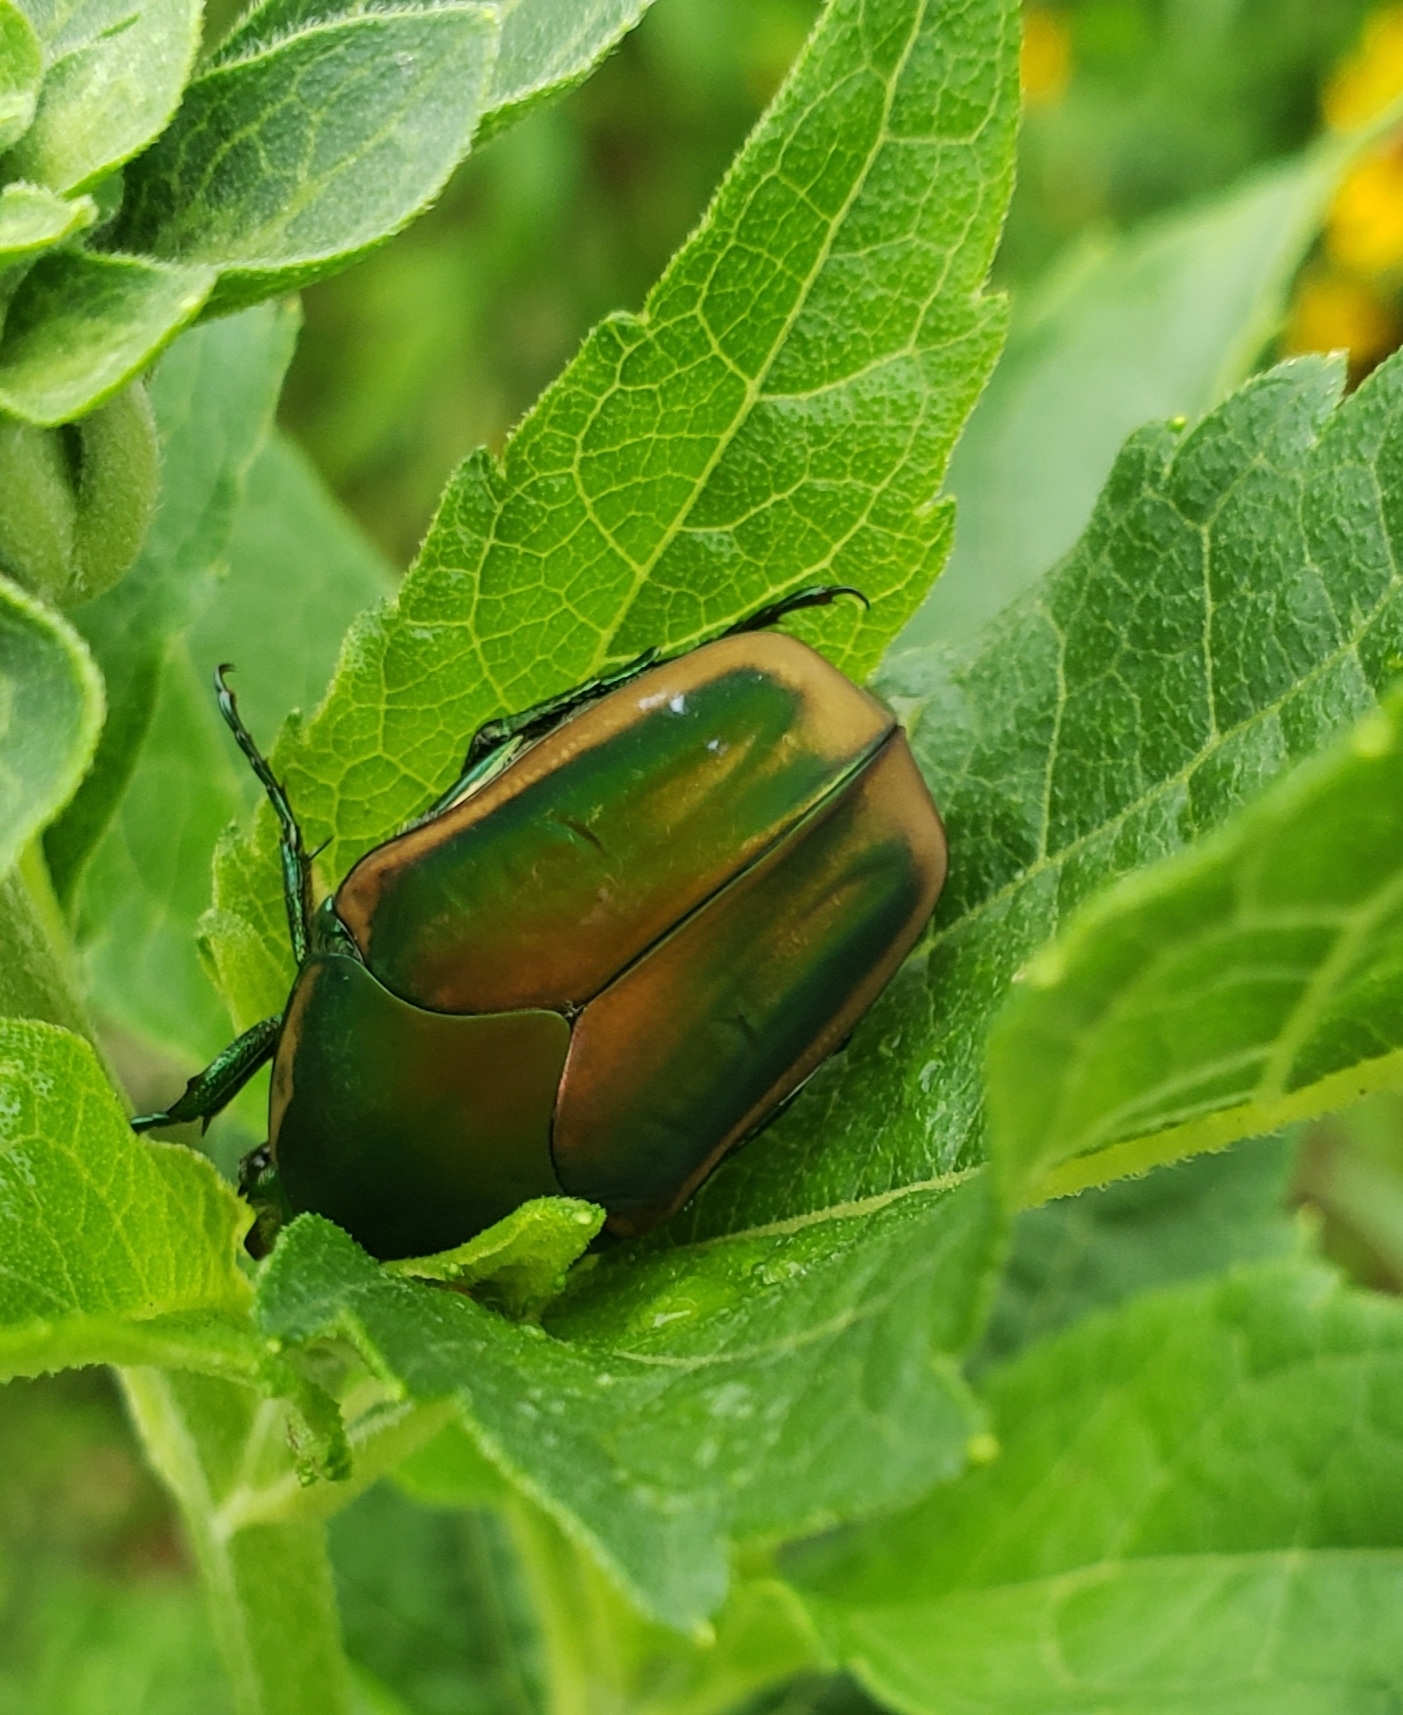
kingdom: Animalia
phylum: Arthropoda
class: Insecta
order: Coleoptera
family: Scarabaeidae
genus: Cotinis
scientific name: Cotinis nitida
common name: Common green june beetle
